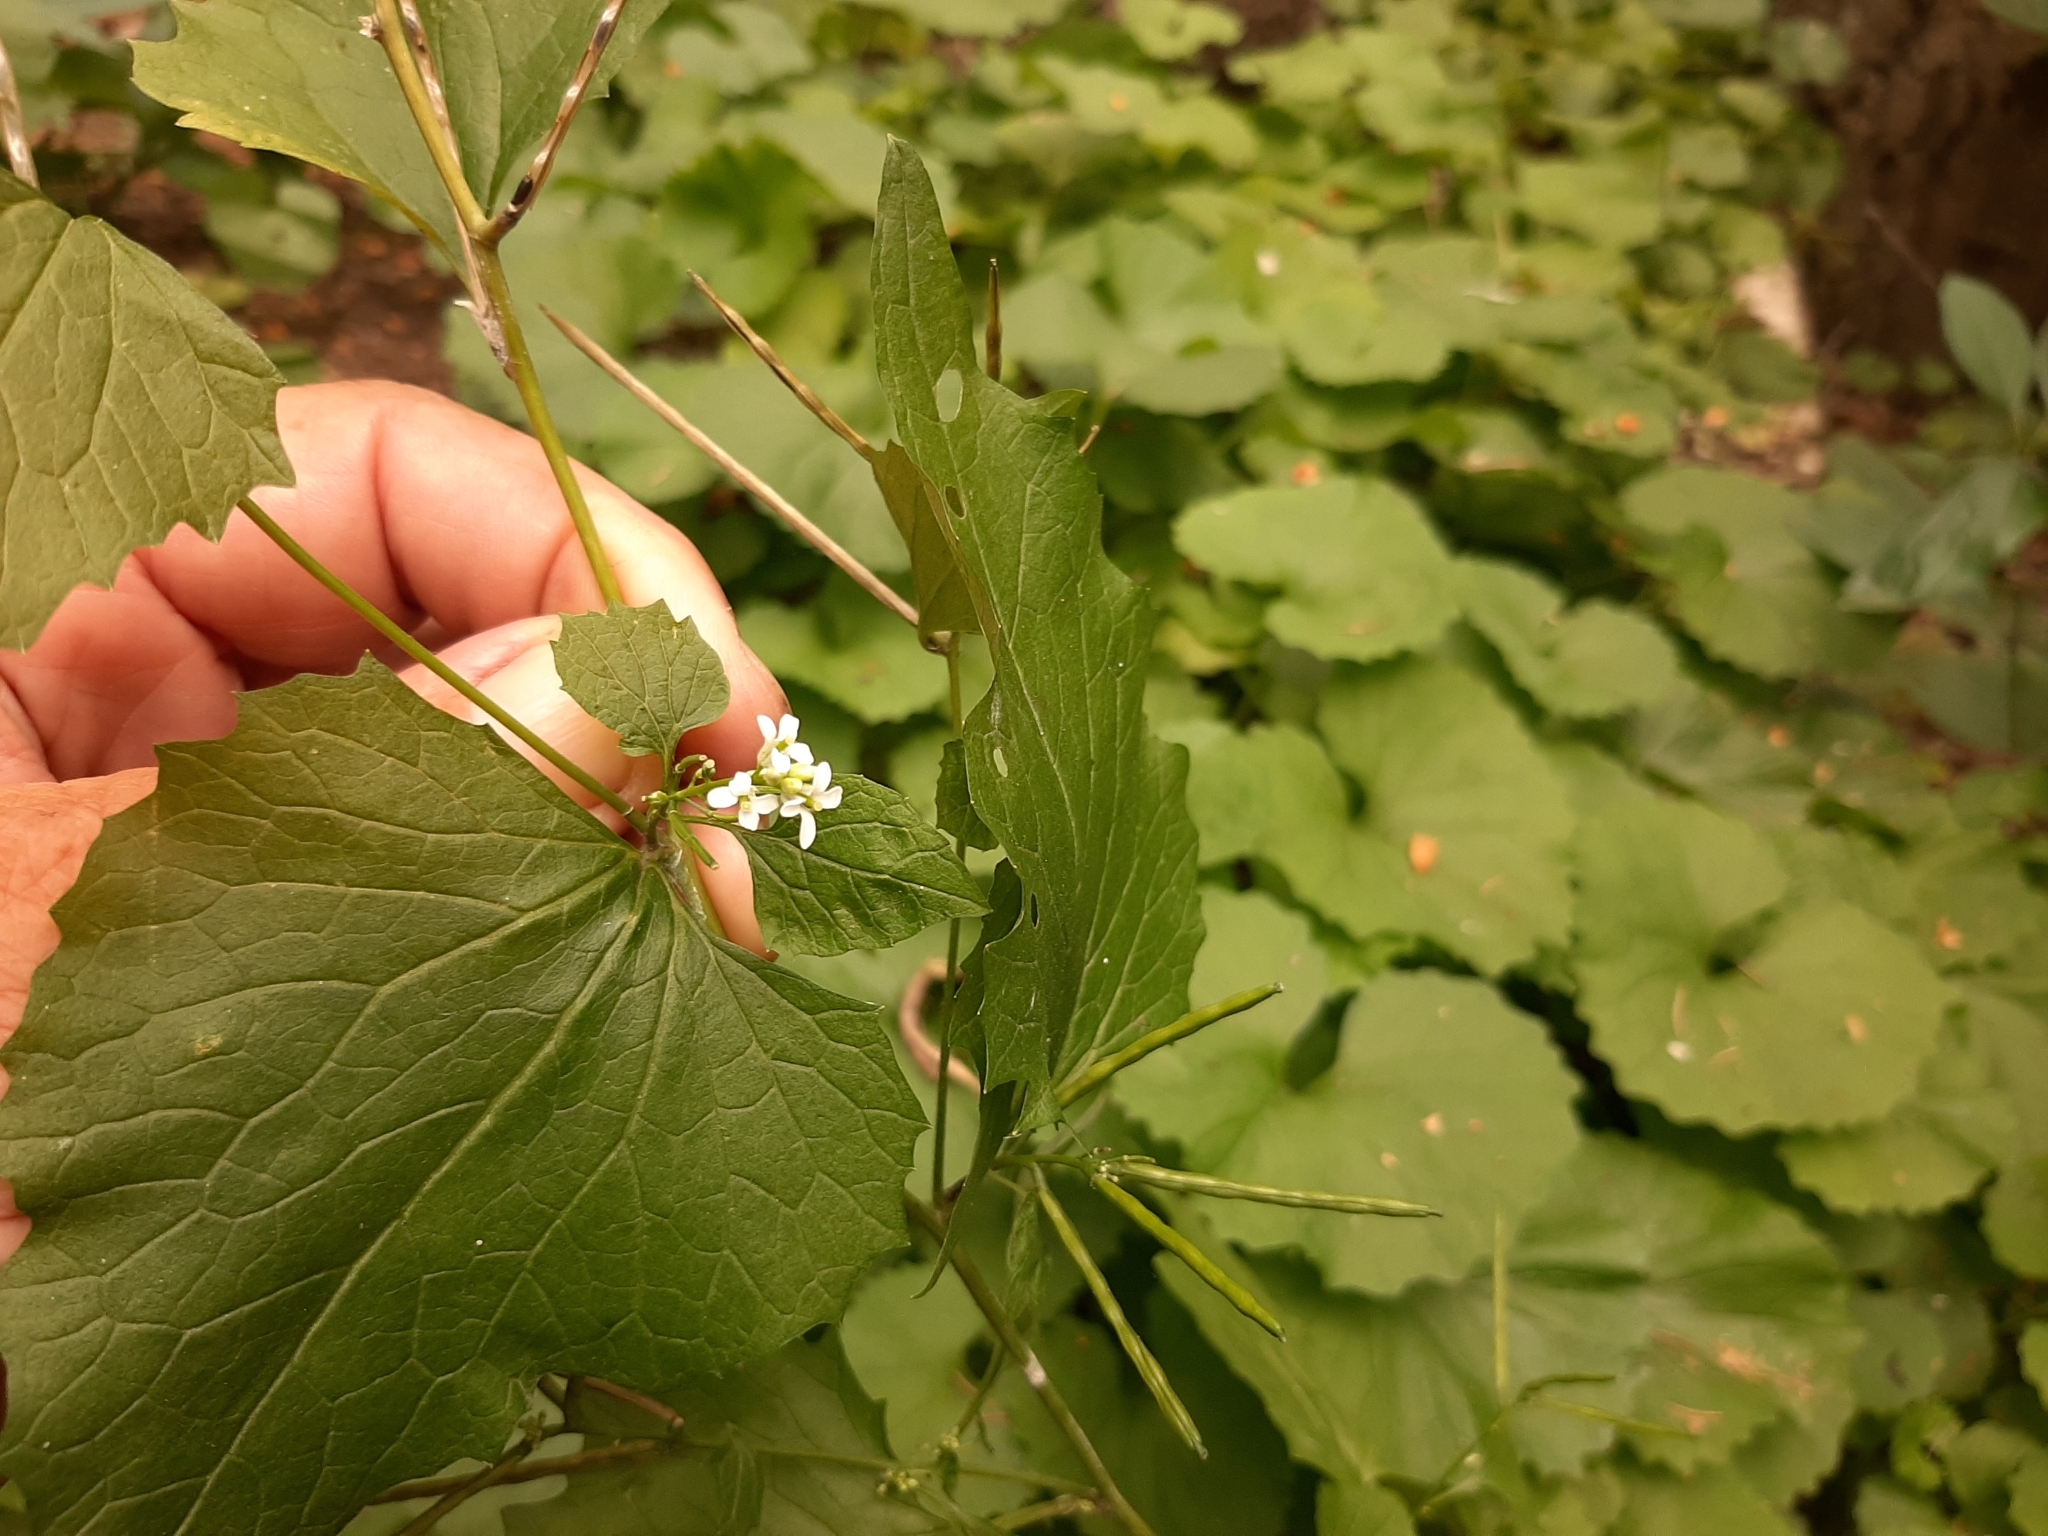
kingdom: Plantae
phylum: Tracheophyta
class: Magnoliopsida
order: Brassicales
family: Brassicaceae
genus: Alliaria
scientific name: Alliaria petiolata
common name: Garlic mustard
